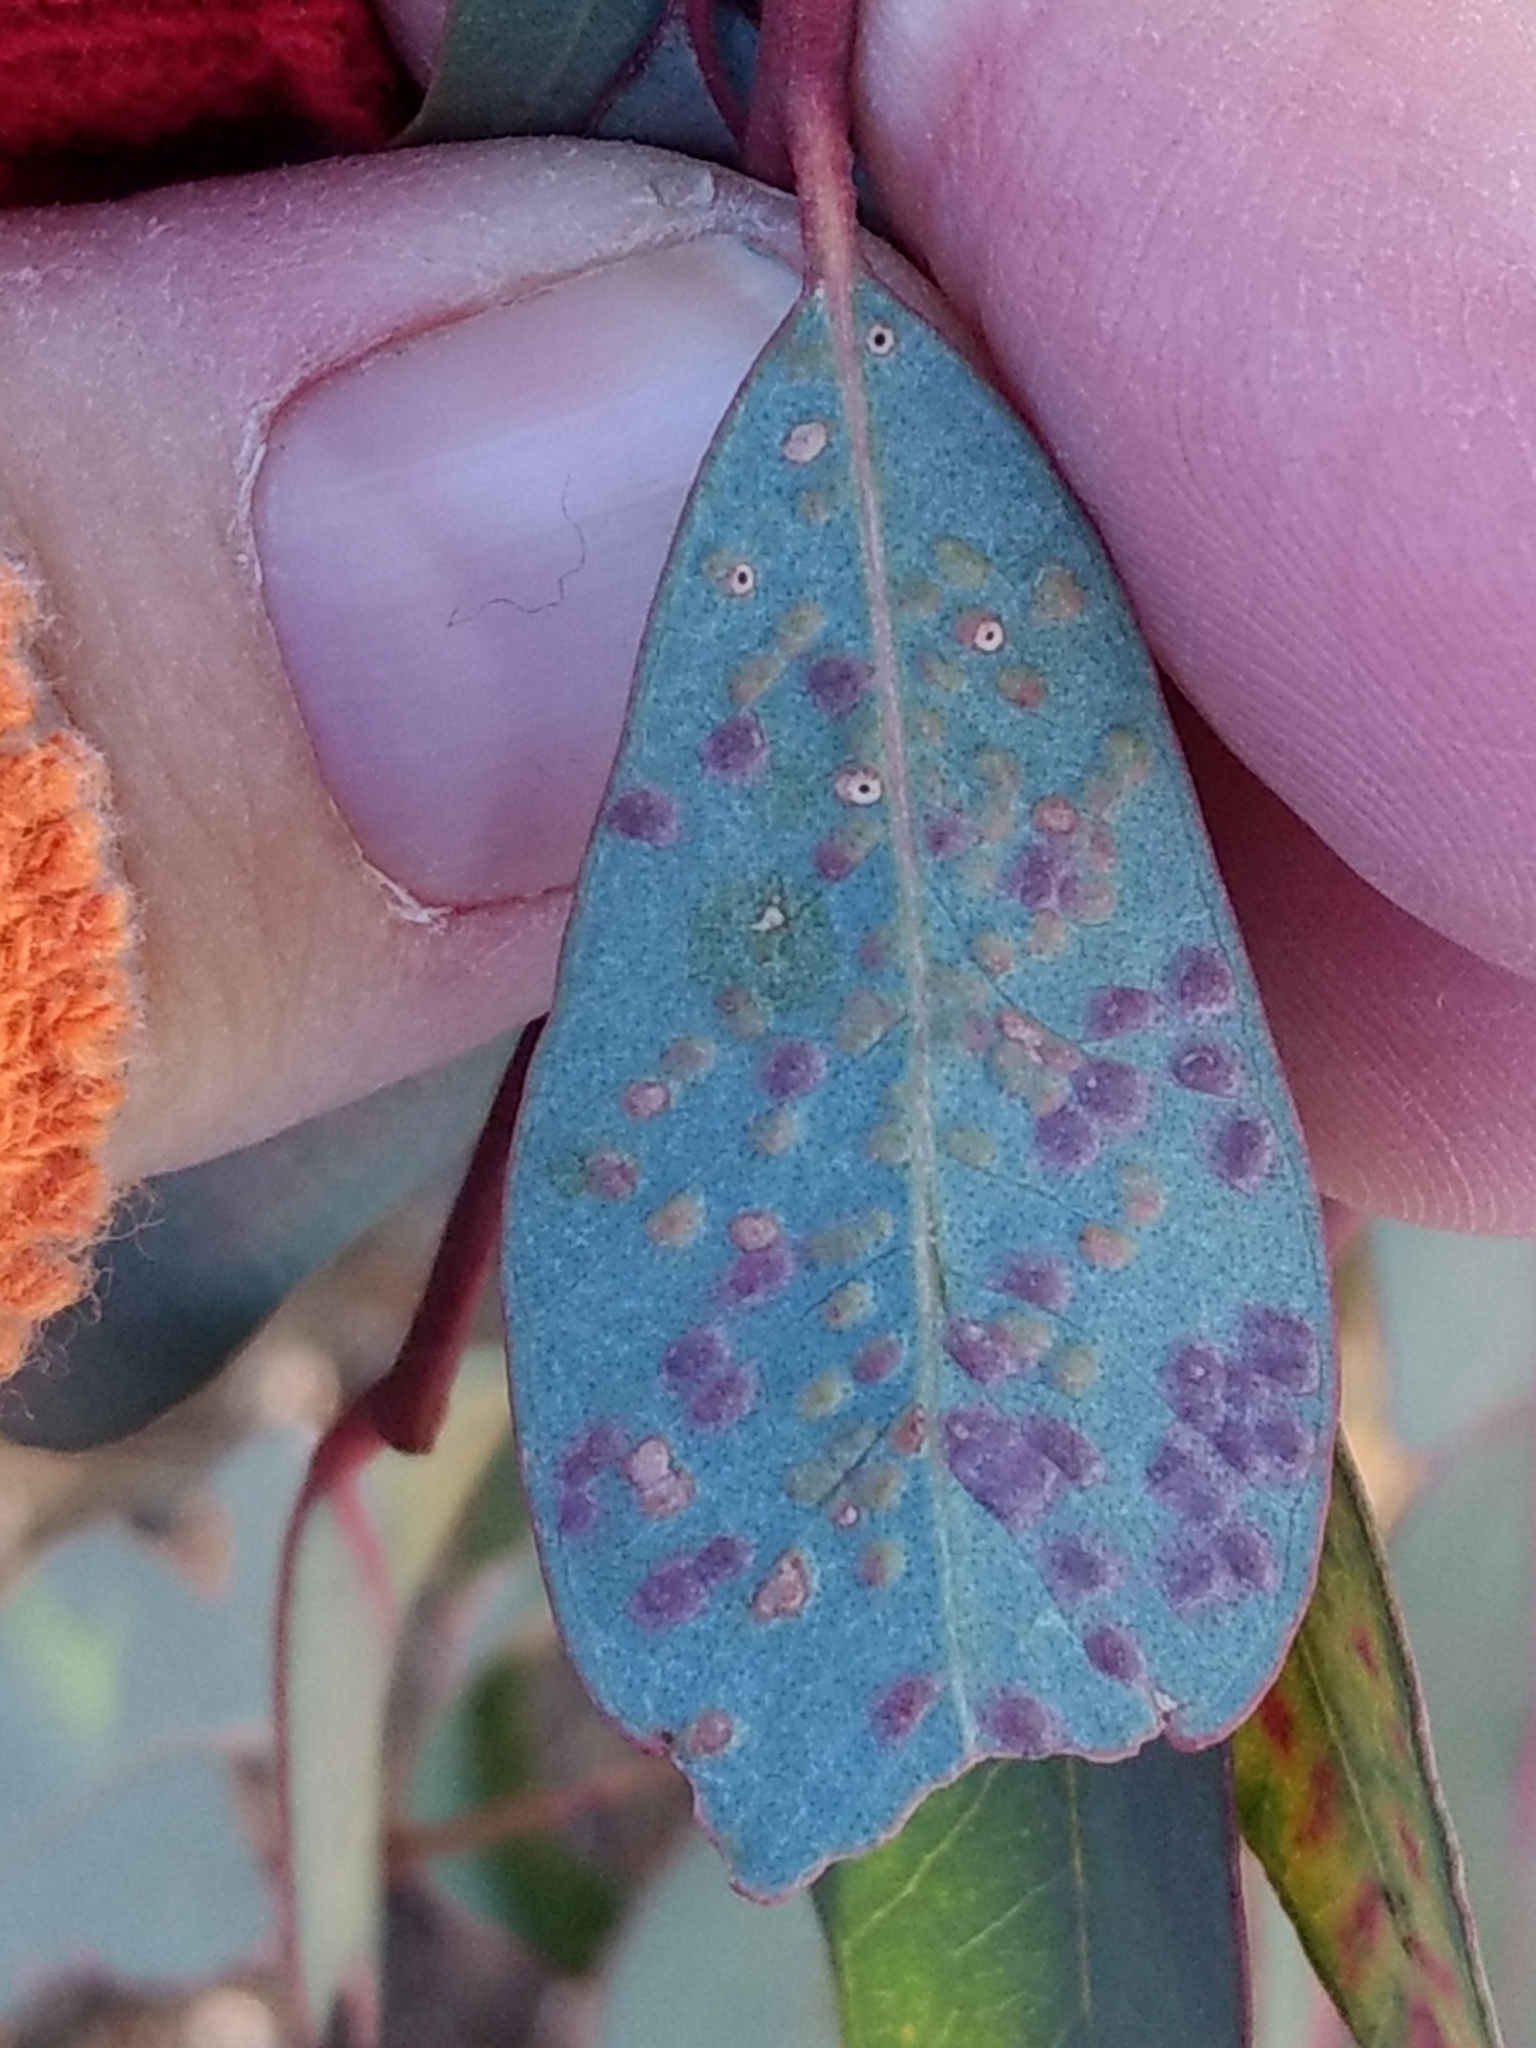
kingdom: Animalia
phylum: Arthropoda
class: Insecta
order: Hymenoptera
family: Eulophidae
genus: Ophelimus
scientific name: Ophelimus maskelli
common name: Gall wasp
